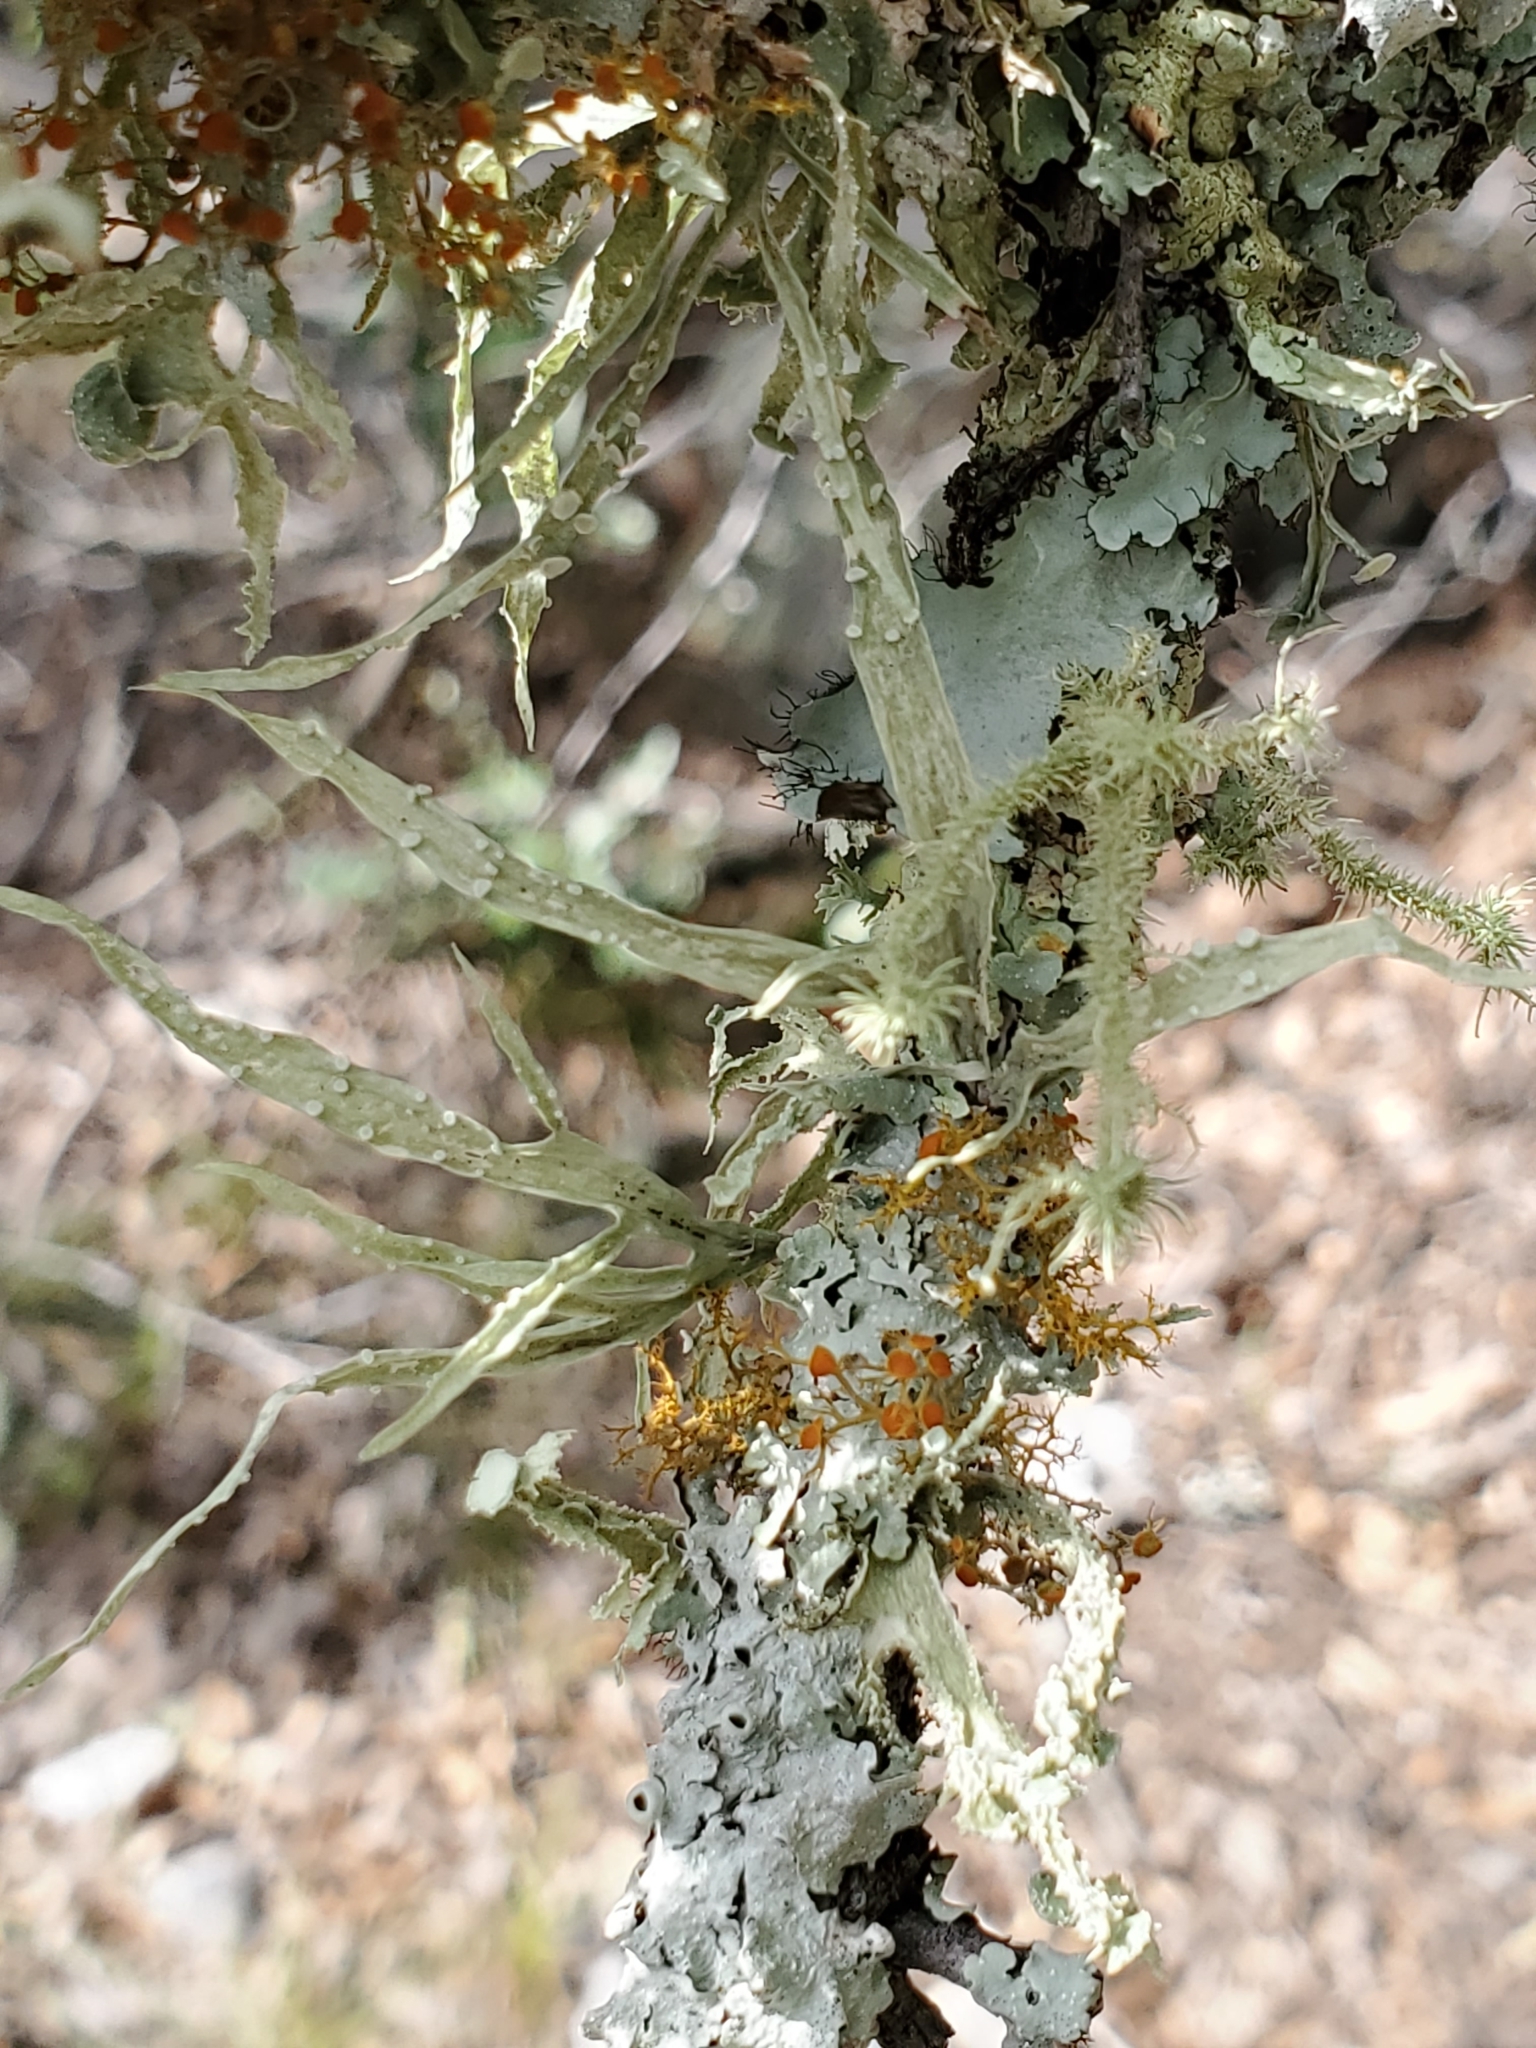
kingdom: Fungi
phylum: Ascomycota
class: Lecanoromycetes
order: Lecanorales
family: Ramalinaceae
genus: Ramalina
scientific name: Ramalina celastri
